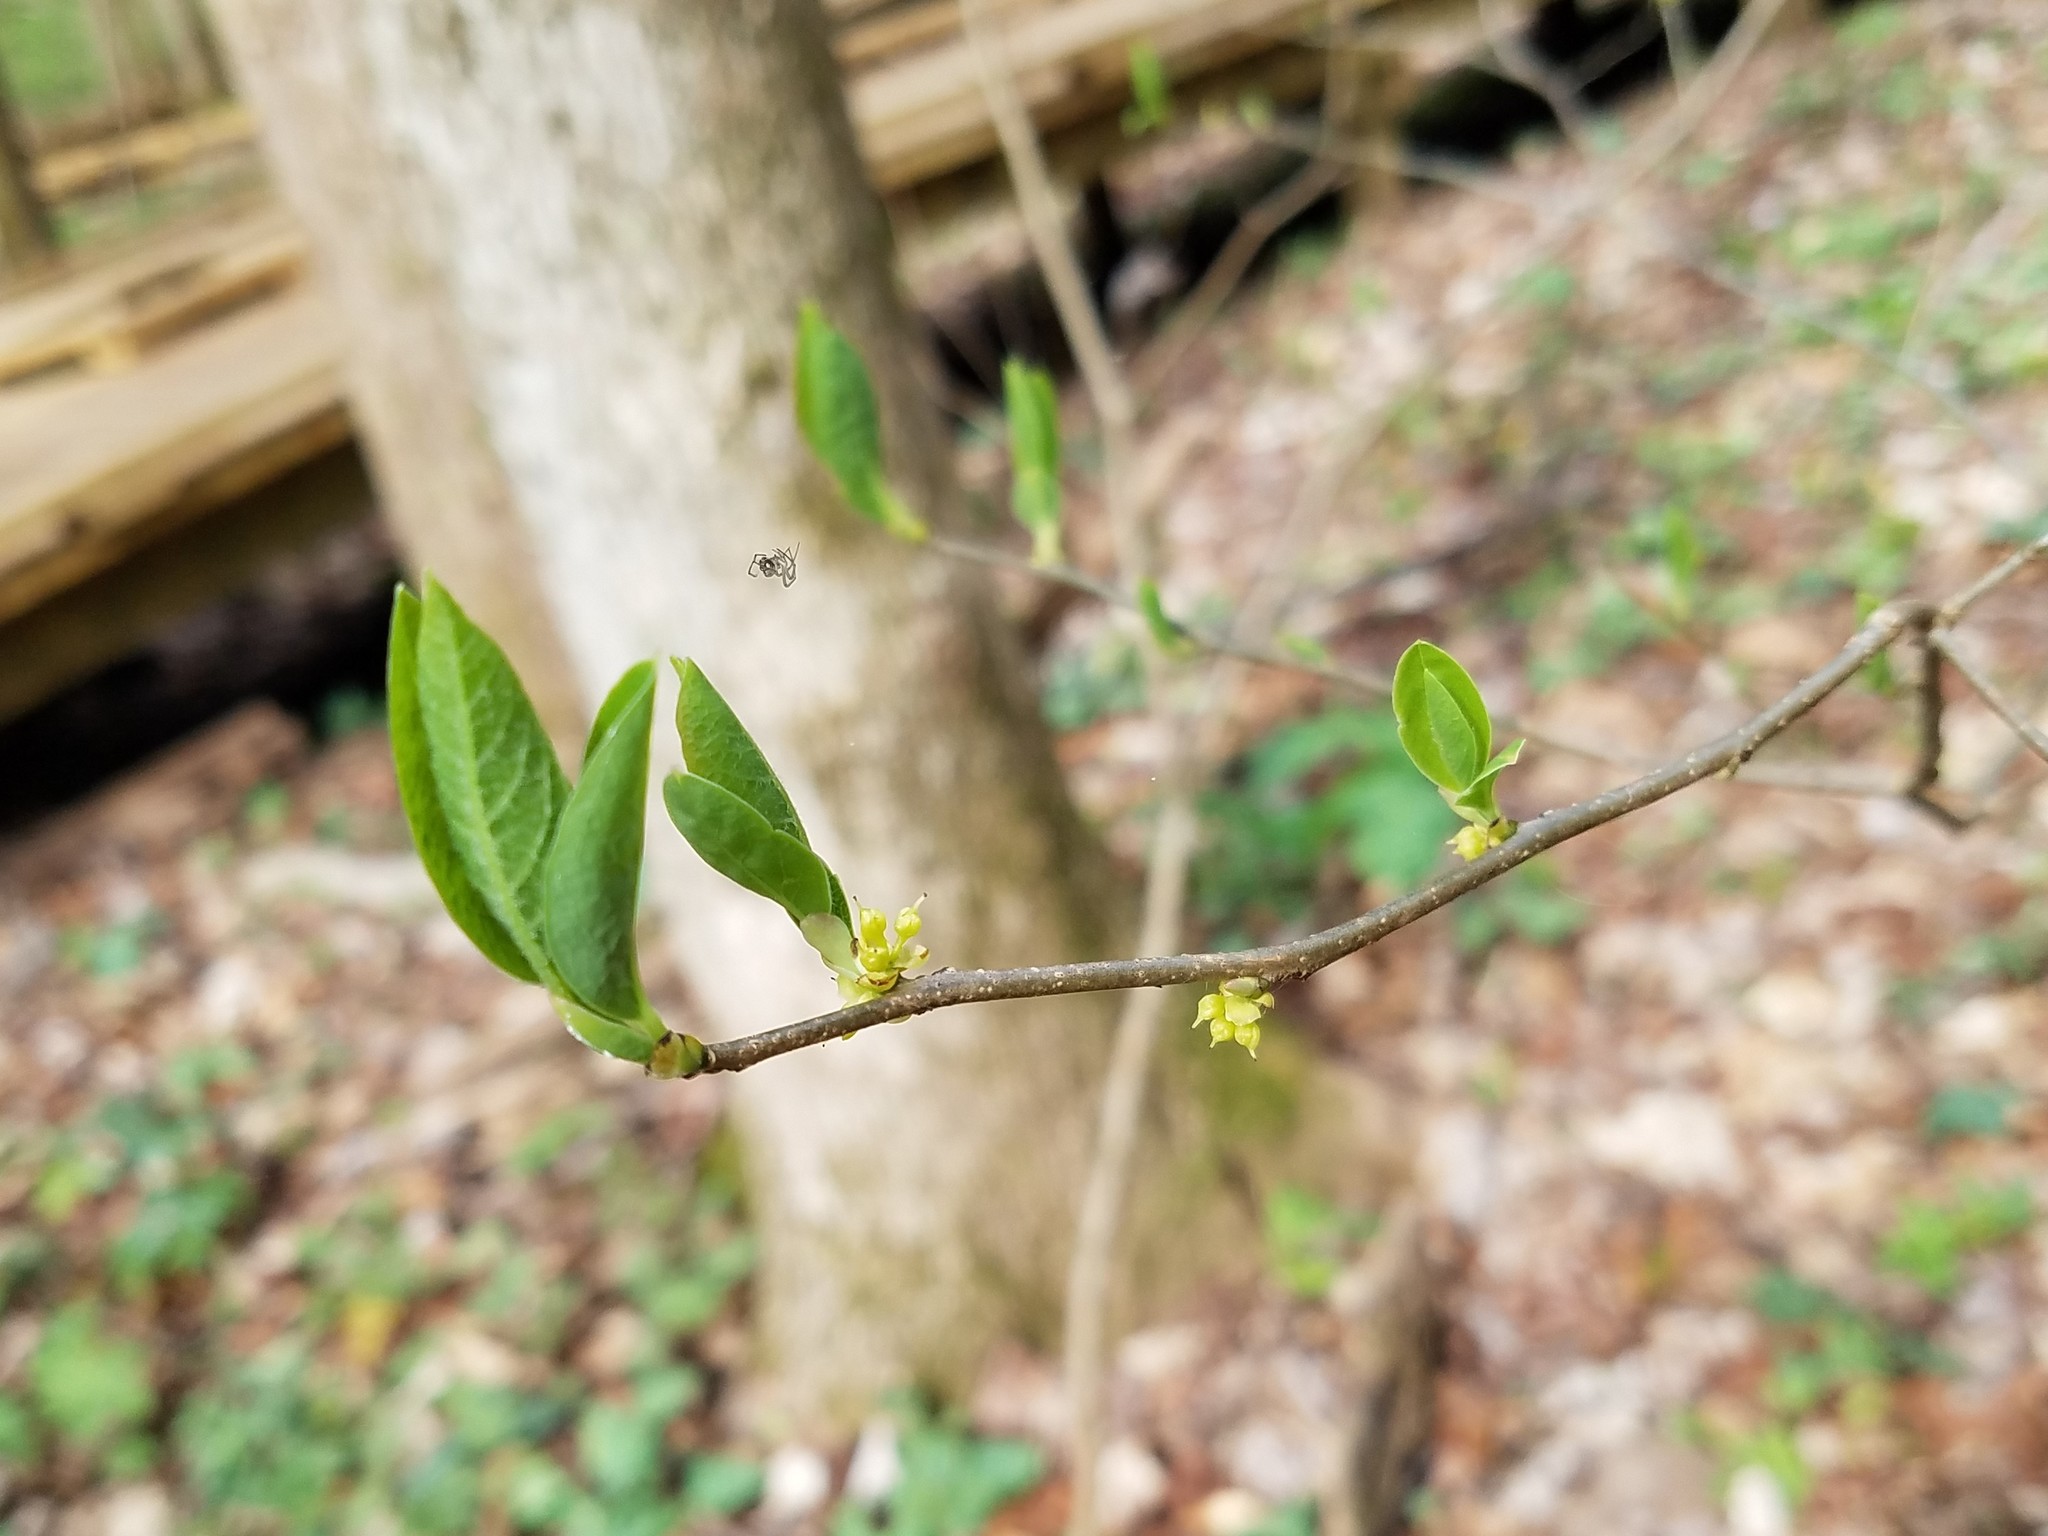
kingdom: Plantae
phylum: Tracheophyta
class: Magnoliopsida
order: Laurales
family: Lauraceae
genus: Lindera
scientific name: Lindera benzoin
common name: Spicebush
